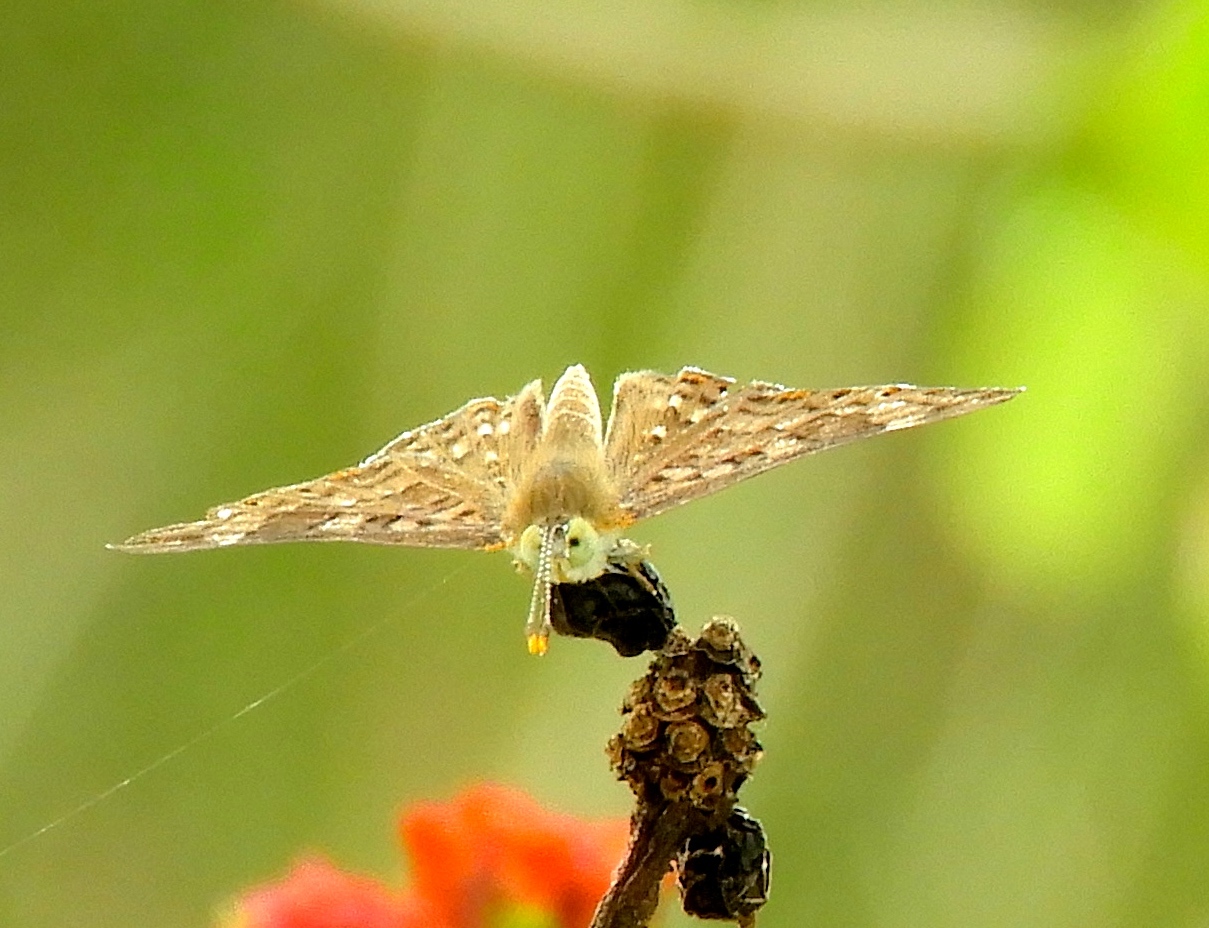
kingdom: Animalia
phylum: Arthropoda
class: Insecta
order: Lepidoptera
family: Riodinidae
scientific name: Riodinidae
